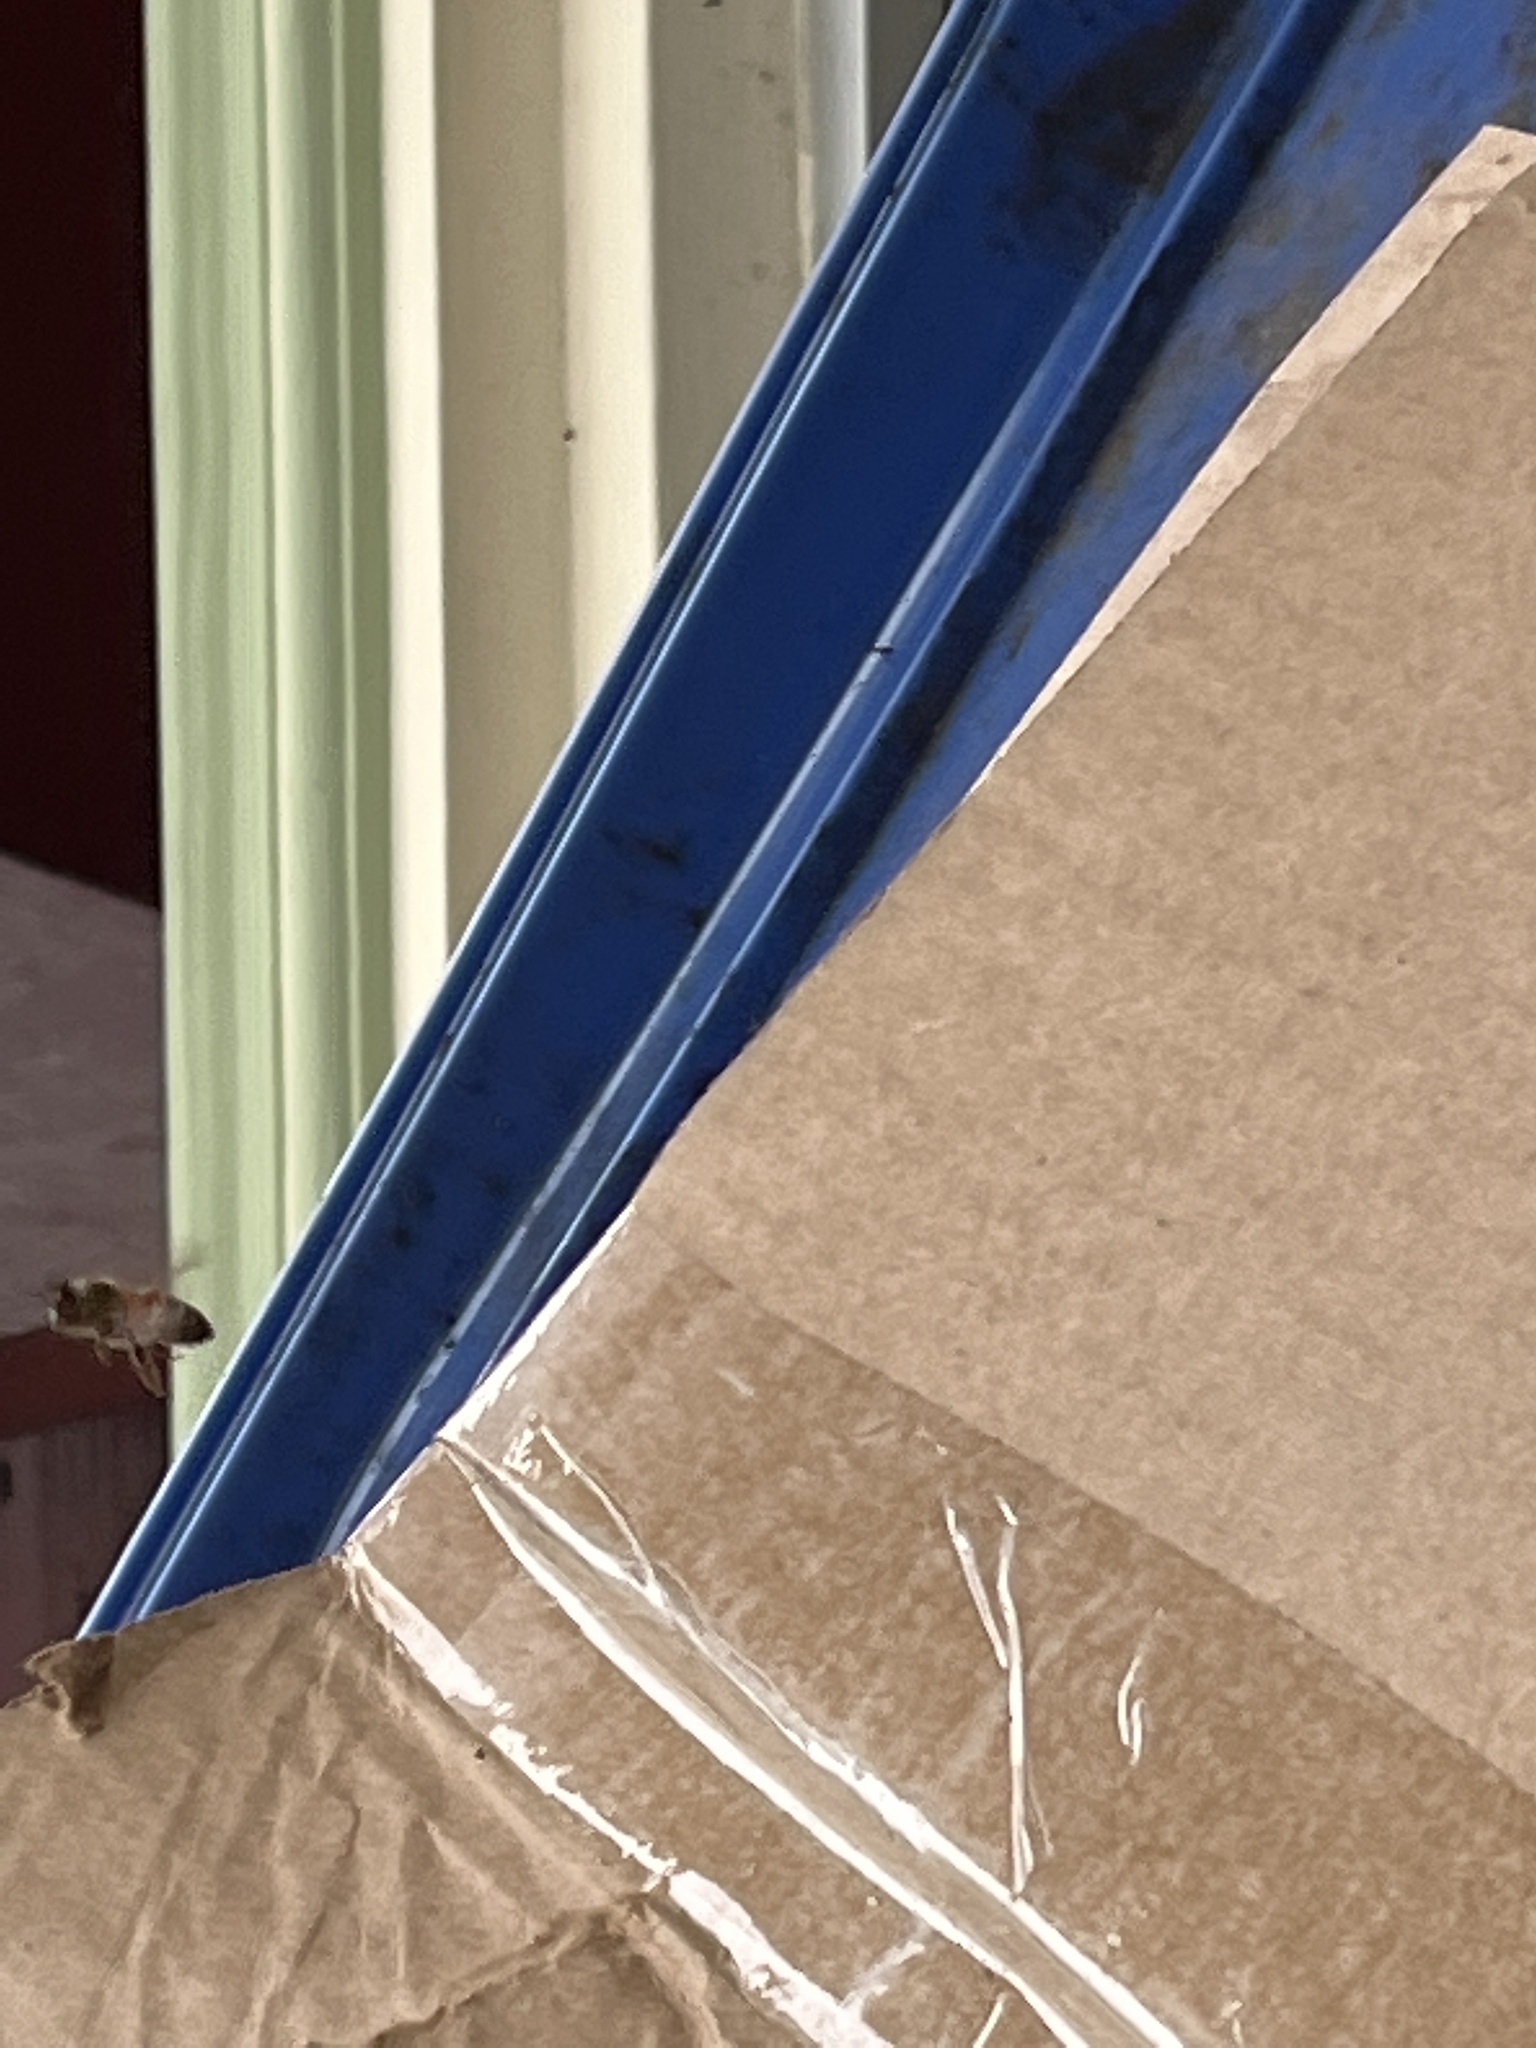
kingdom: Animalia
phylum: Arthropoda
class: Insecta
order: Hymenoptera
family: Apidae
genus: Apis
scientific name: Apis mellifera
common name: Honey bee
